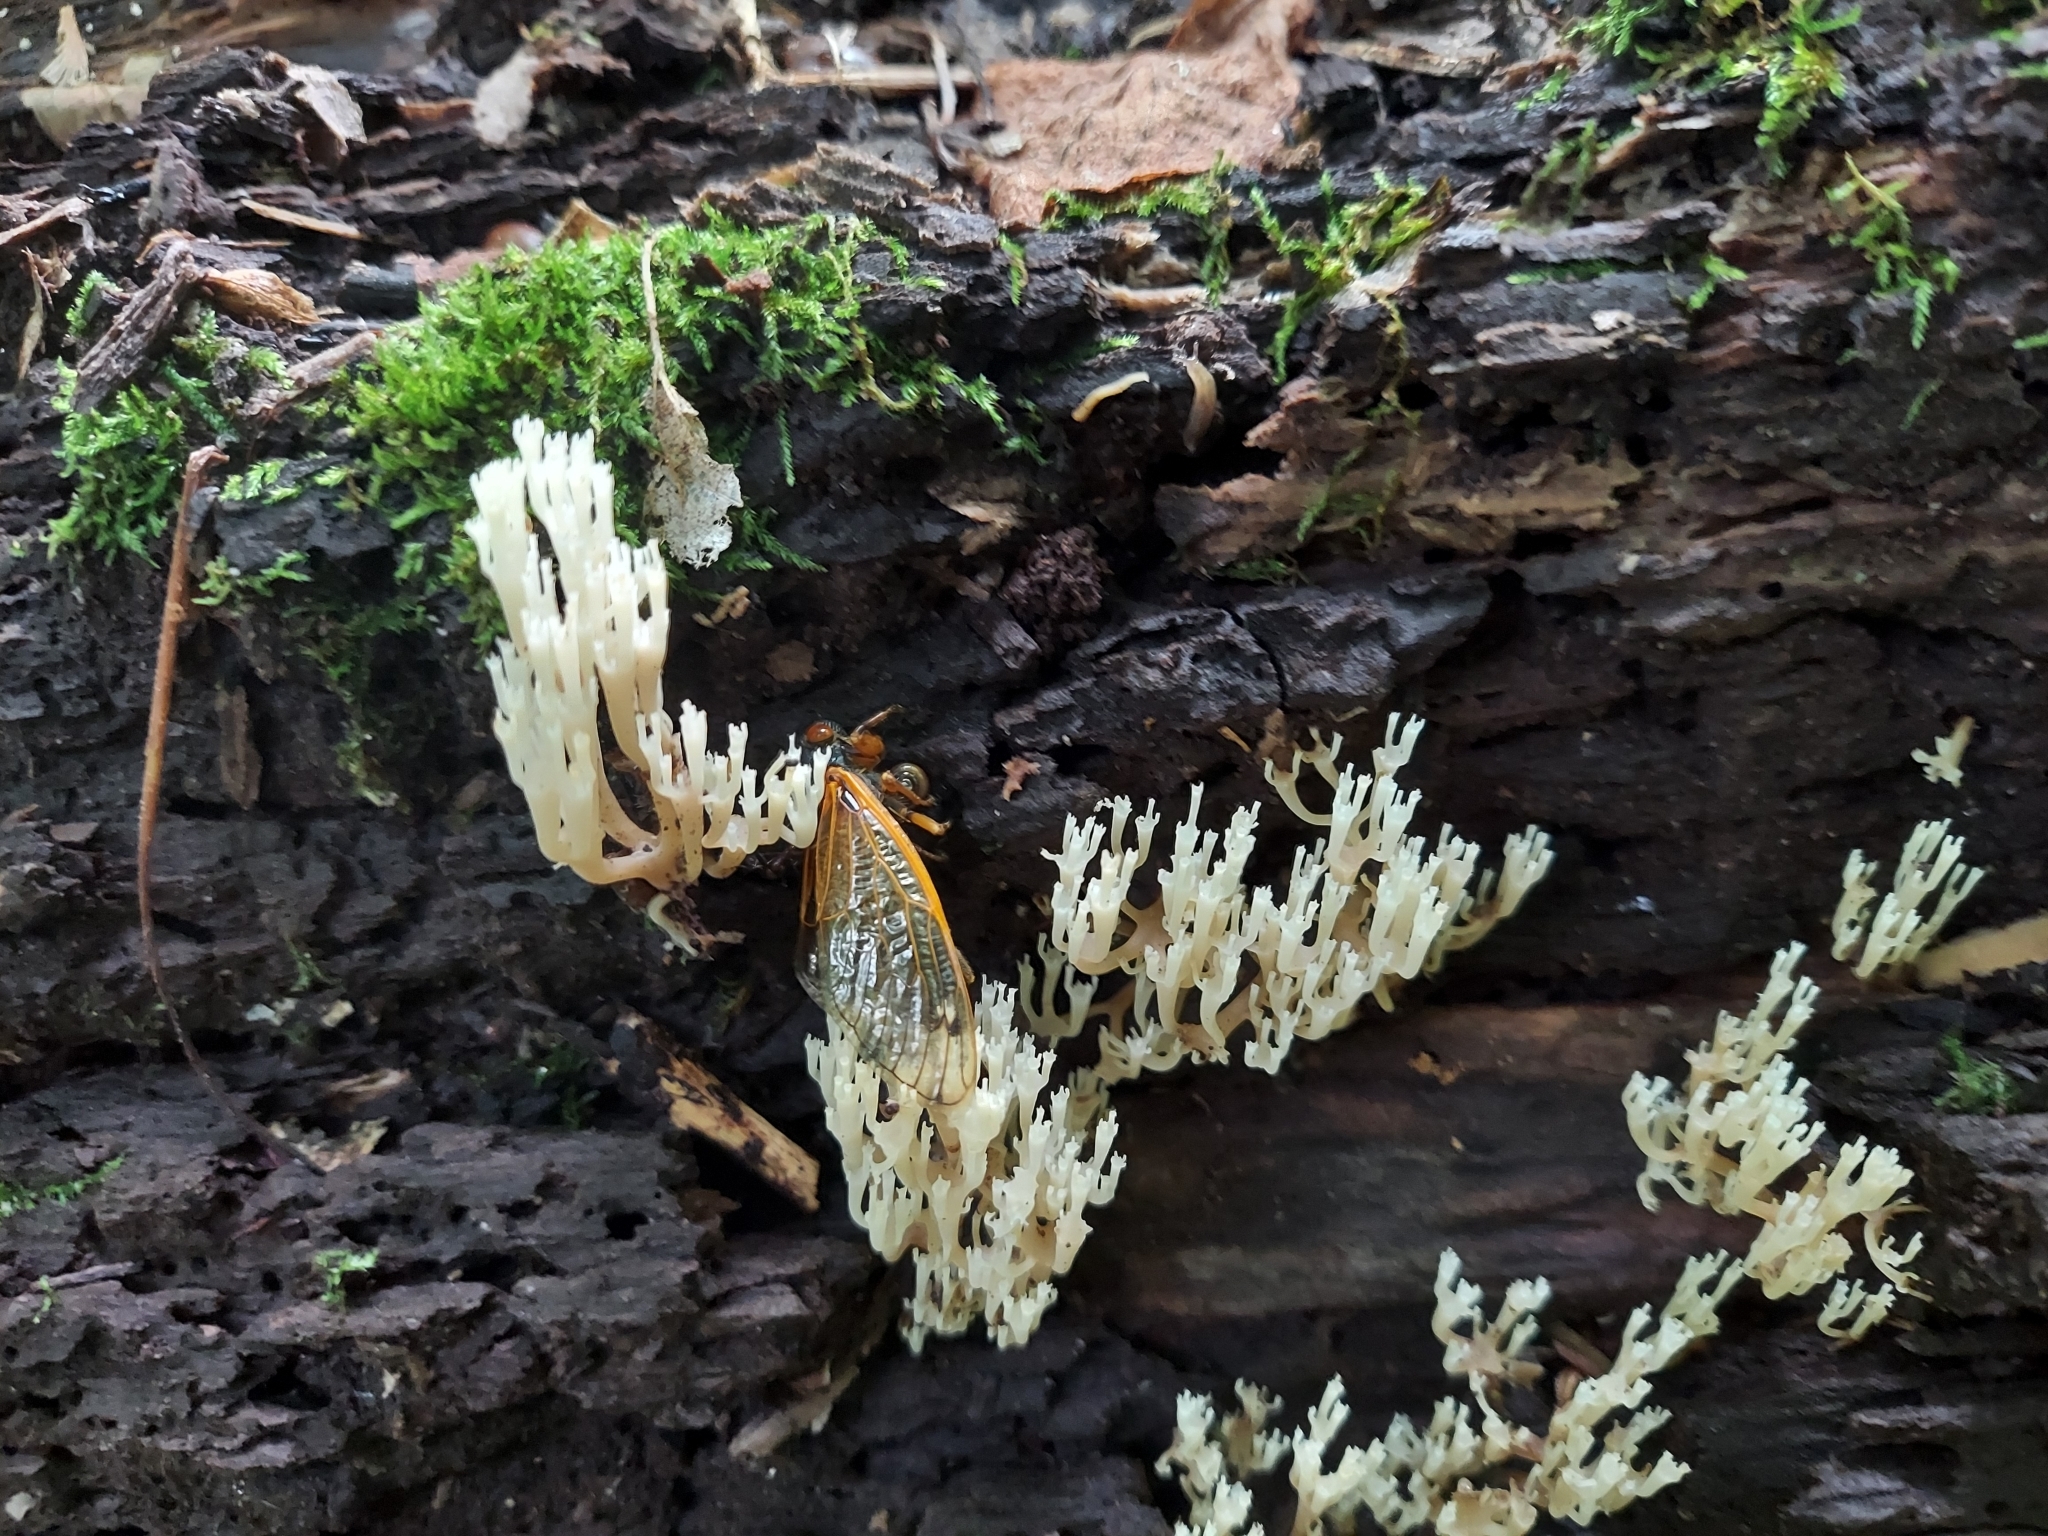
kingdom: Fungi
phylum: Basidiomycota
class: Agaricomycetes
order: Russulales
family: Auriscalpiaceae
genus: Artomyces
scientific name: Artomyces pyxidatus
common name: Crown-tipped coral fungus
